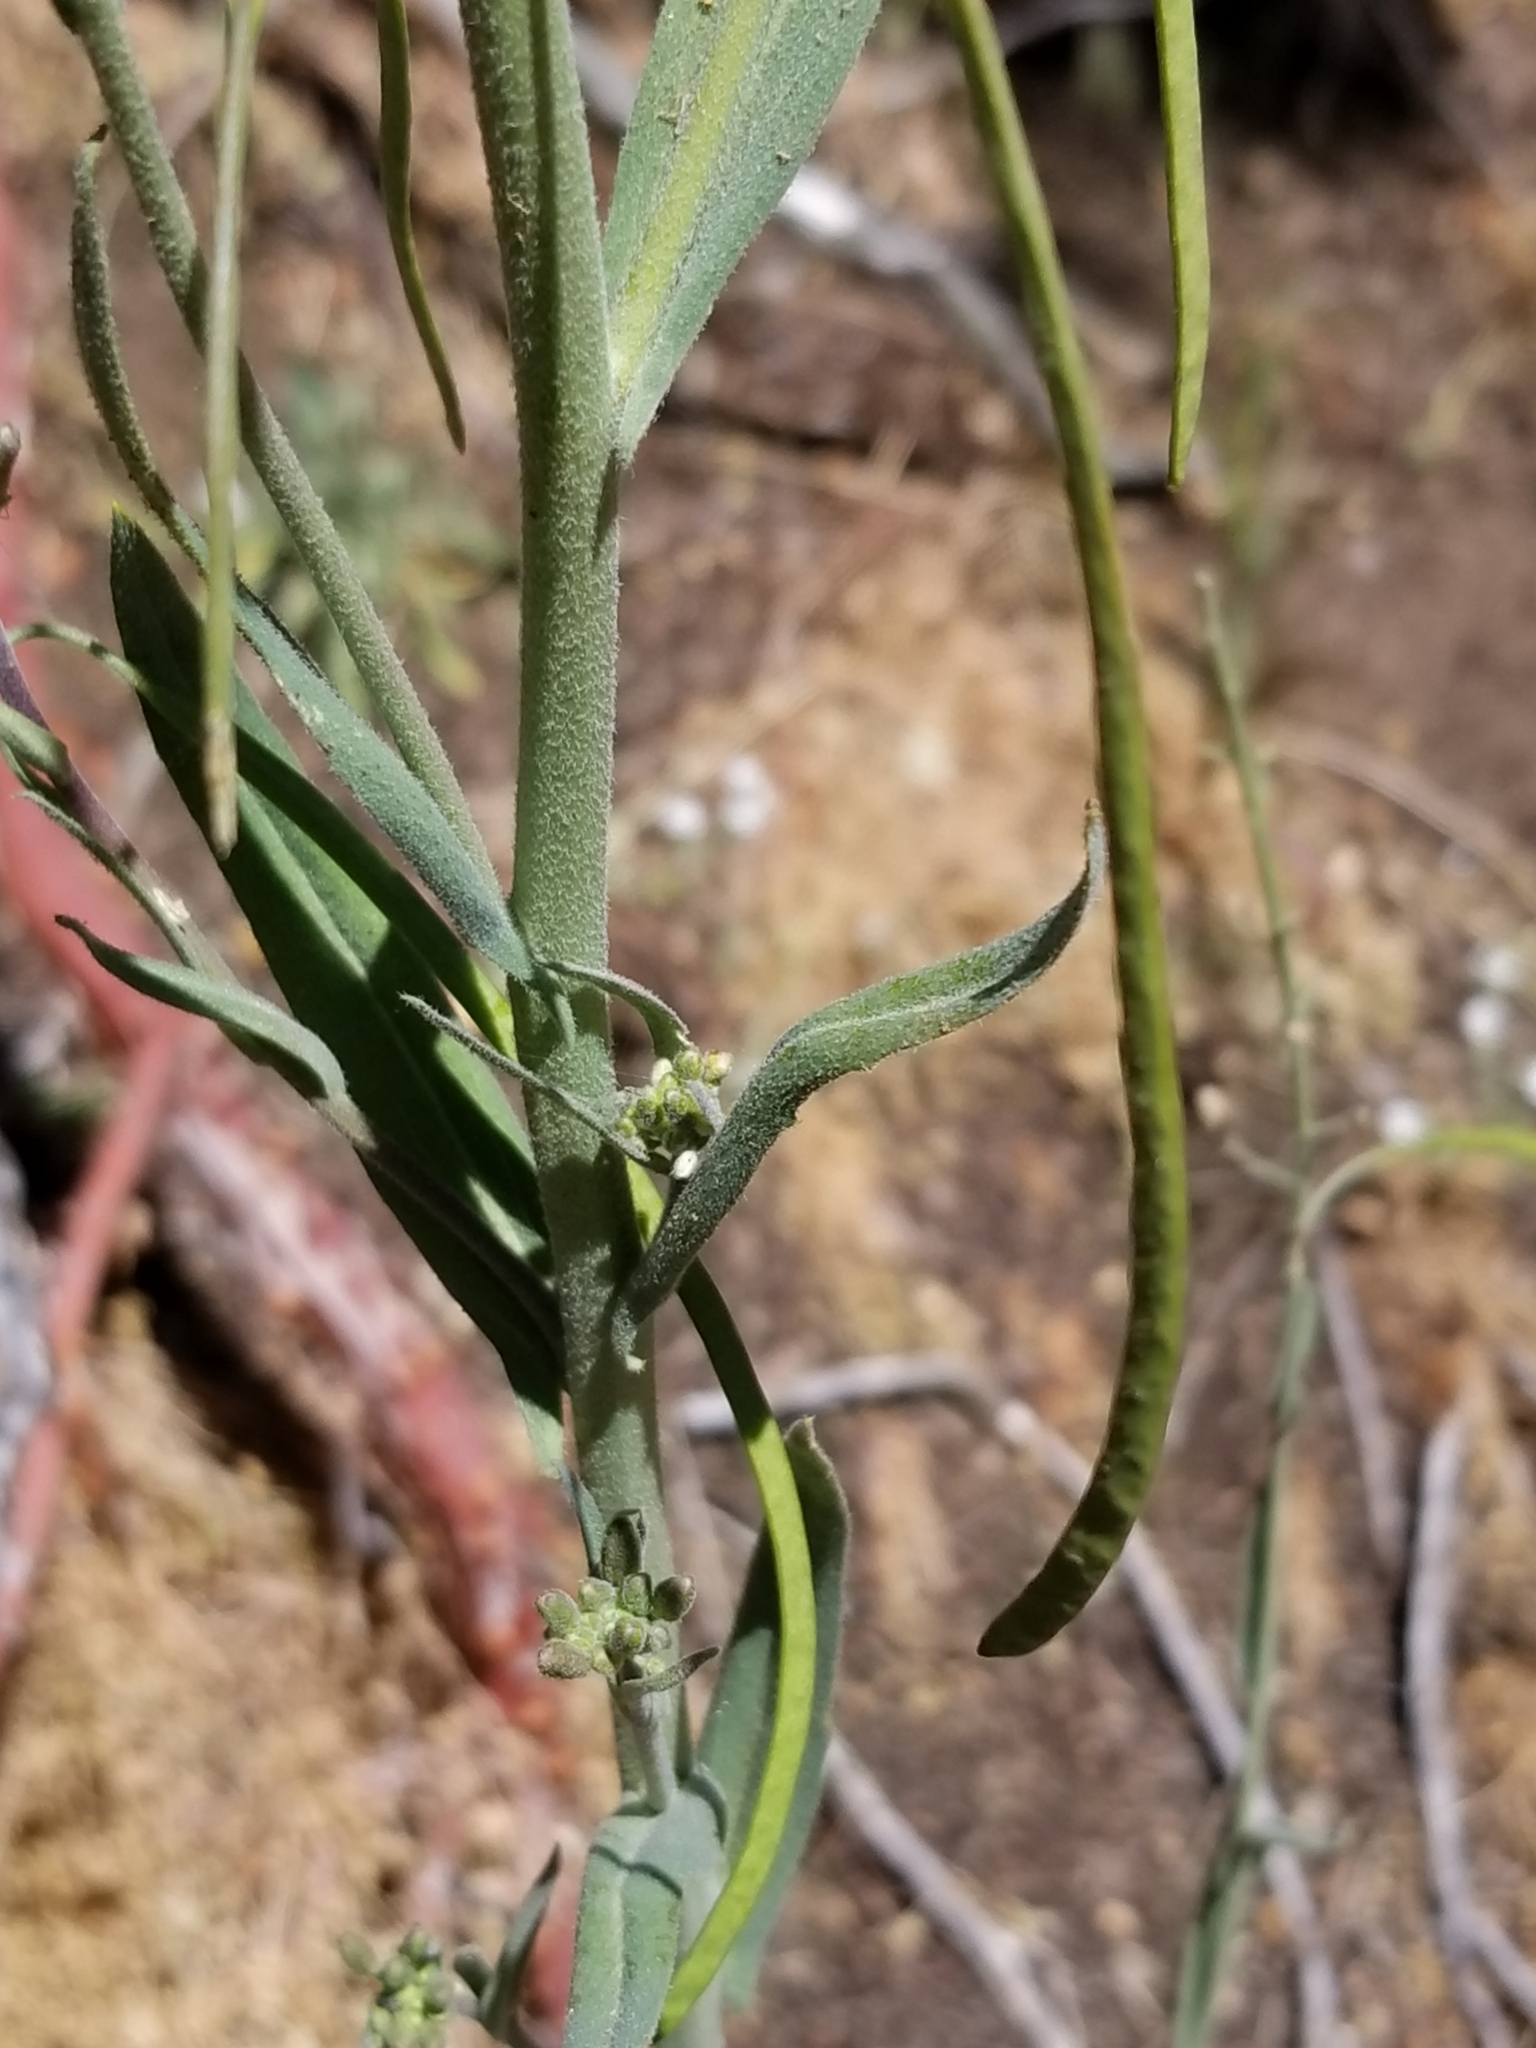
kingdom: Plantae
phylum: Tracheophyta
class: Magnoliopsida
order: Brassicales
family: Brassicaceae
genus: Boechera
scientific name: Boechera californica
